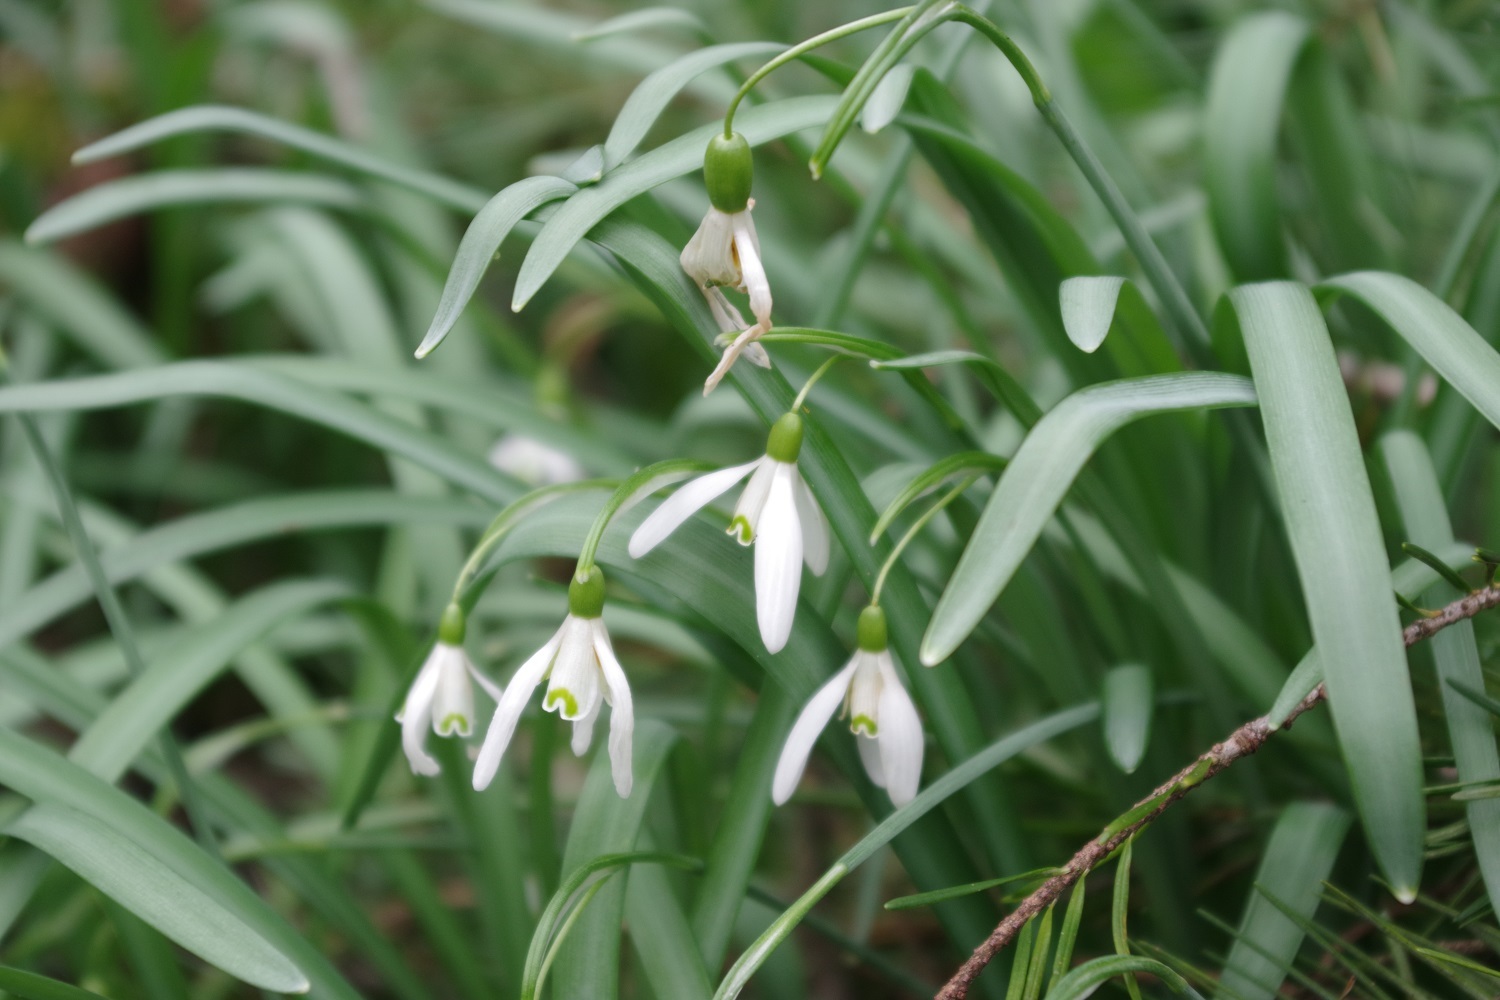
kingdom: Plantae
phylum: Tracheophyta
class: Liliopsida
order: Asparagales
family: Amaryllidaceae
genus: Galanthus
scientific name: Galanthus nivalis
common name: Snowdrop
